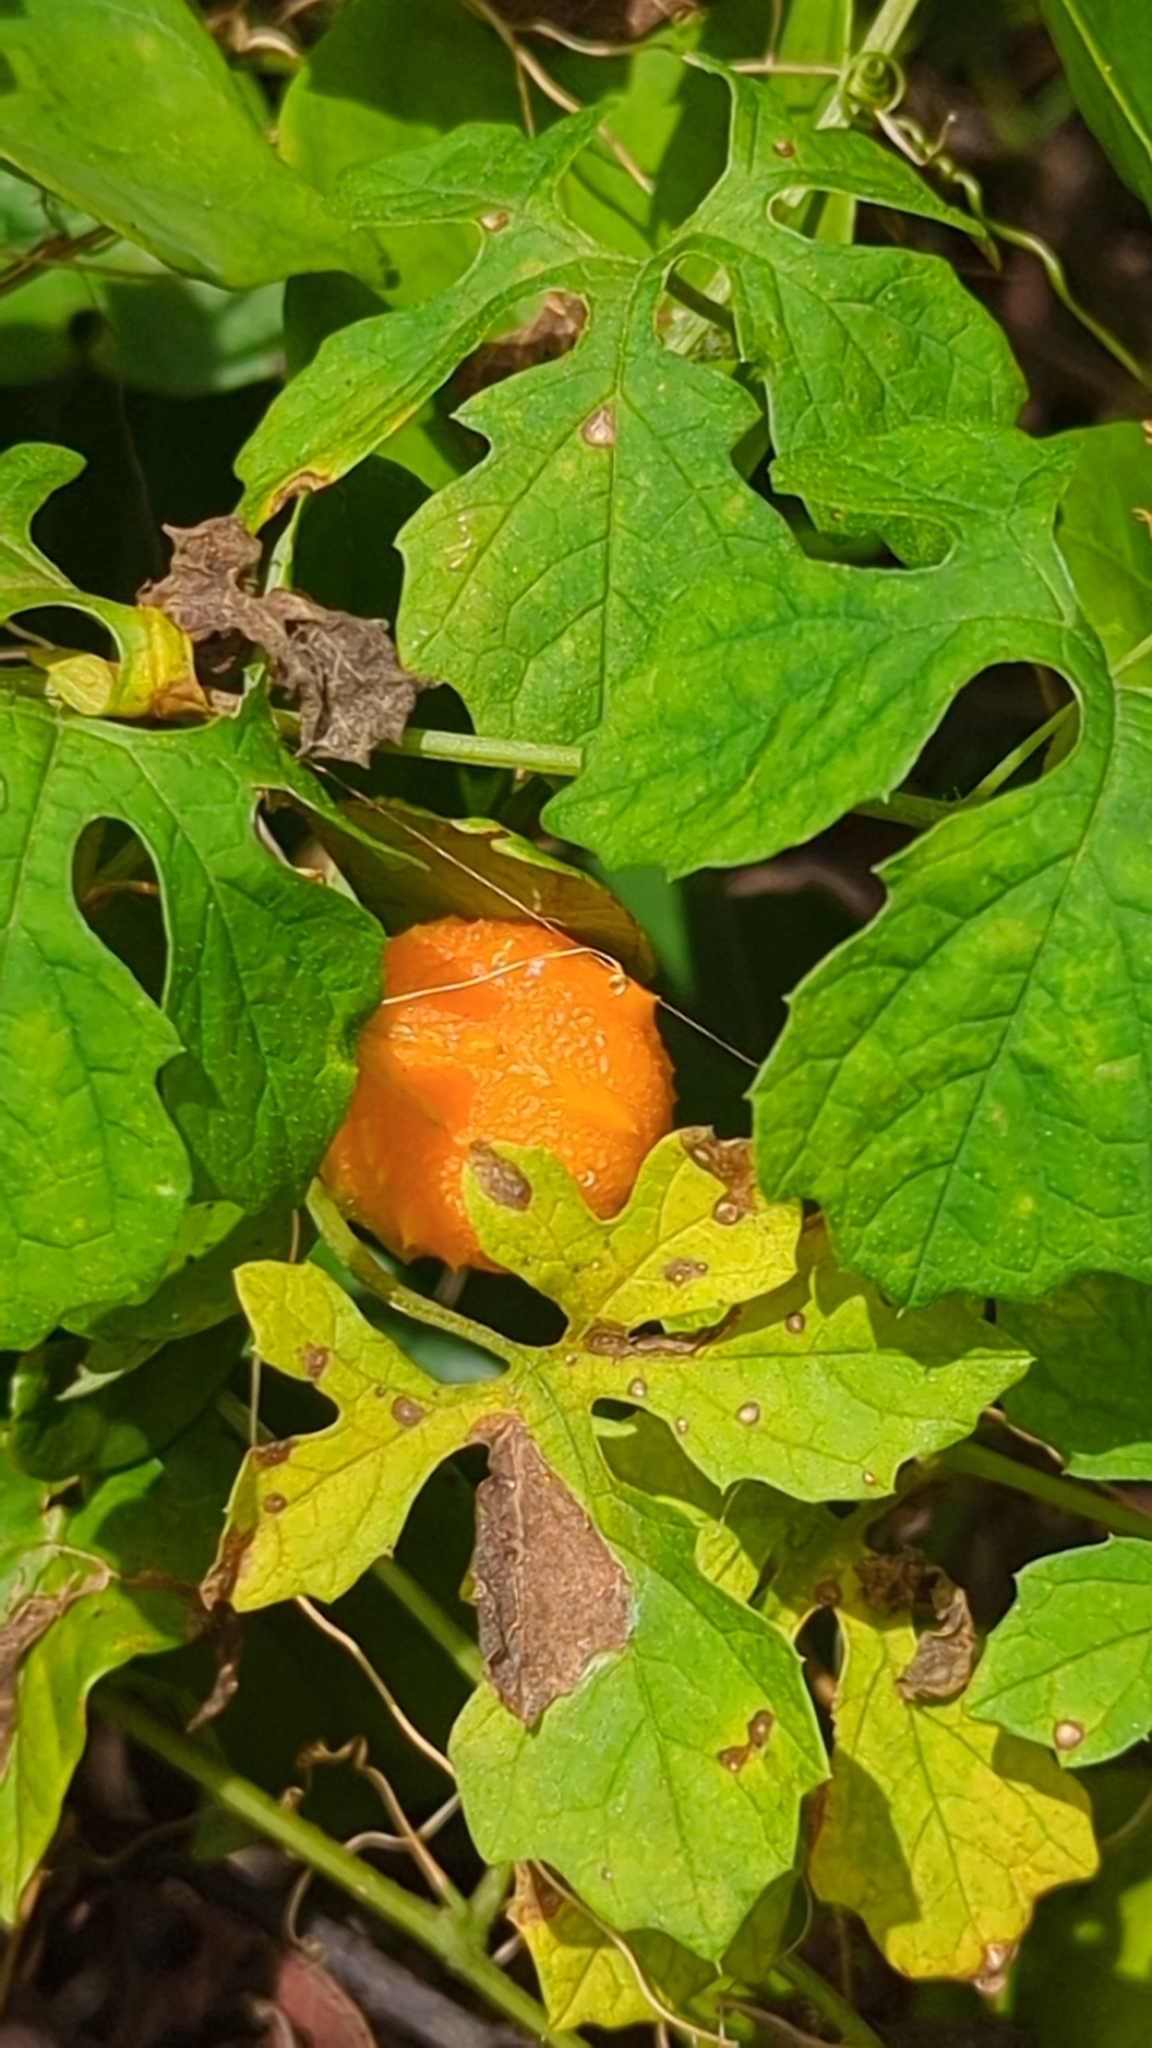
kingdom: Plantae
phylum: Tracheophyta
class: Magnoliopsida
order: Cucurbitales
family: Cucurbitaceae
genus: Momordica
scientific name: Momordica charantia
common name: Balsampear
